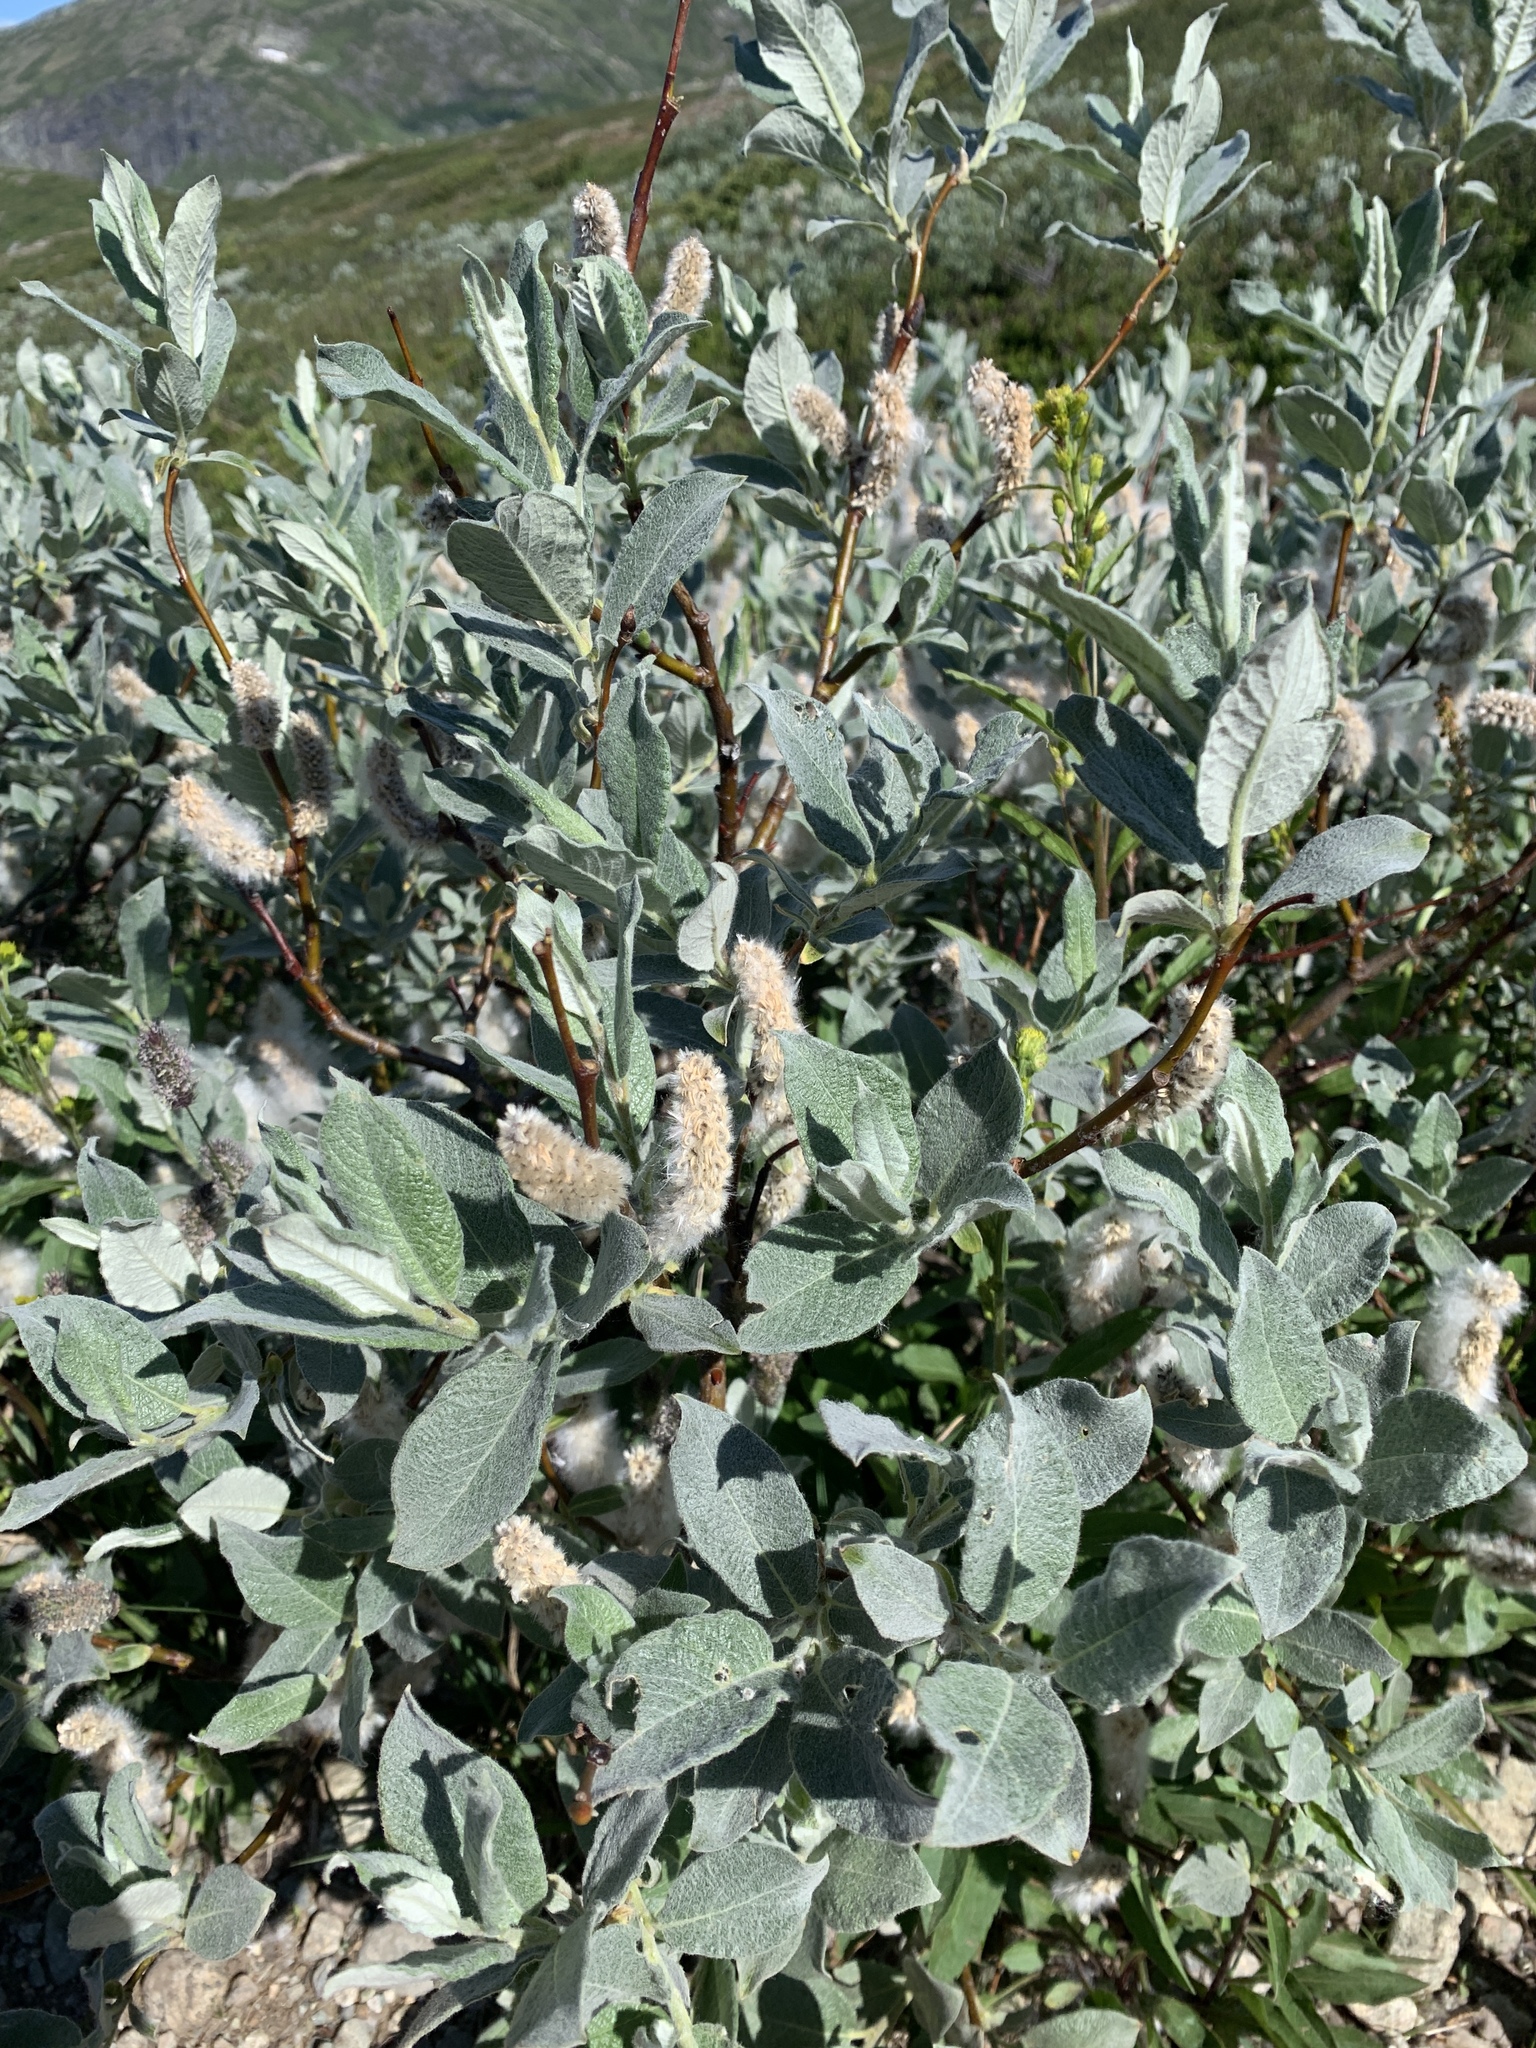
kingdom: Plantae
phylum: Tracheophyta
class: Magnoliopsida
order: Malpighiales
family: Salicaceae
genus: Salix
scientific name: Salix lapponum
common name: Downy willow
